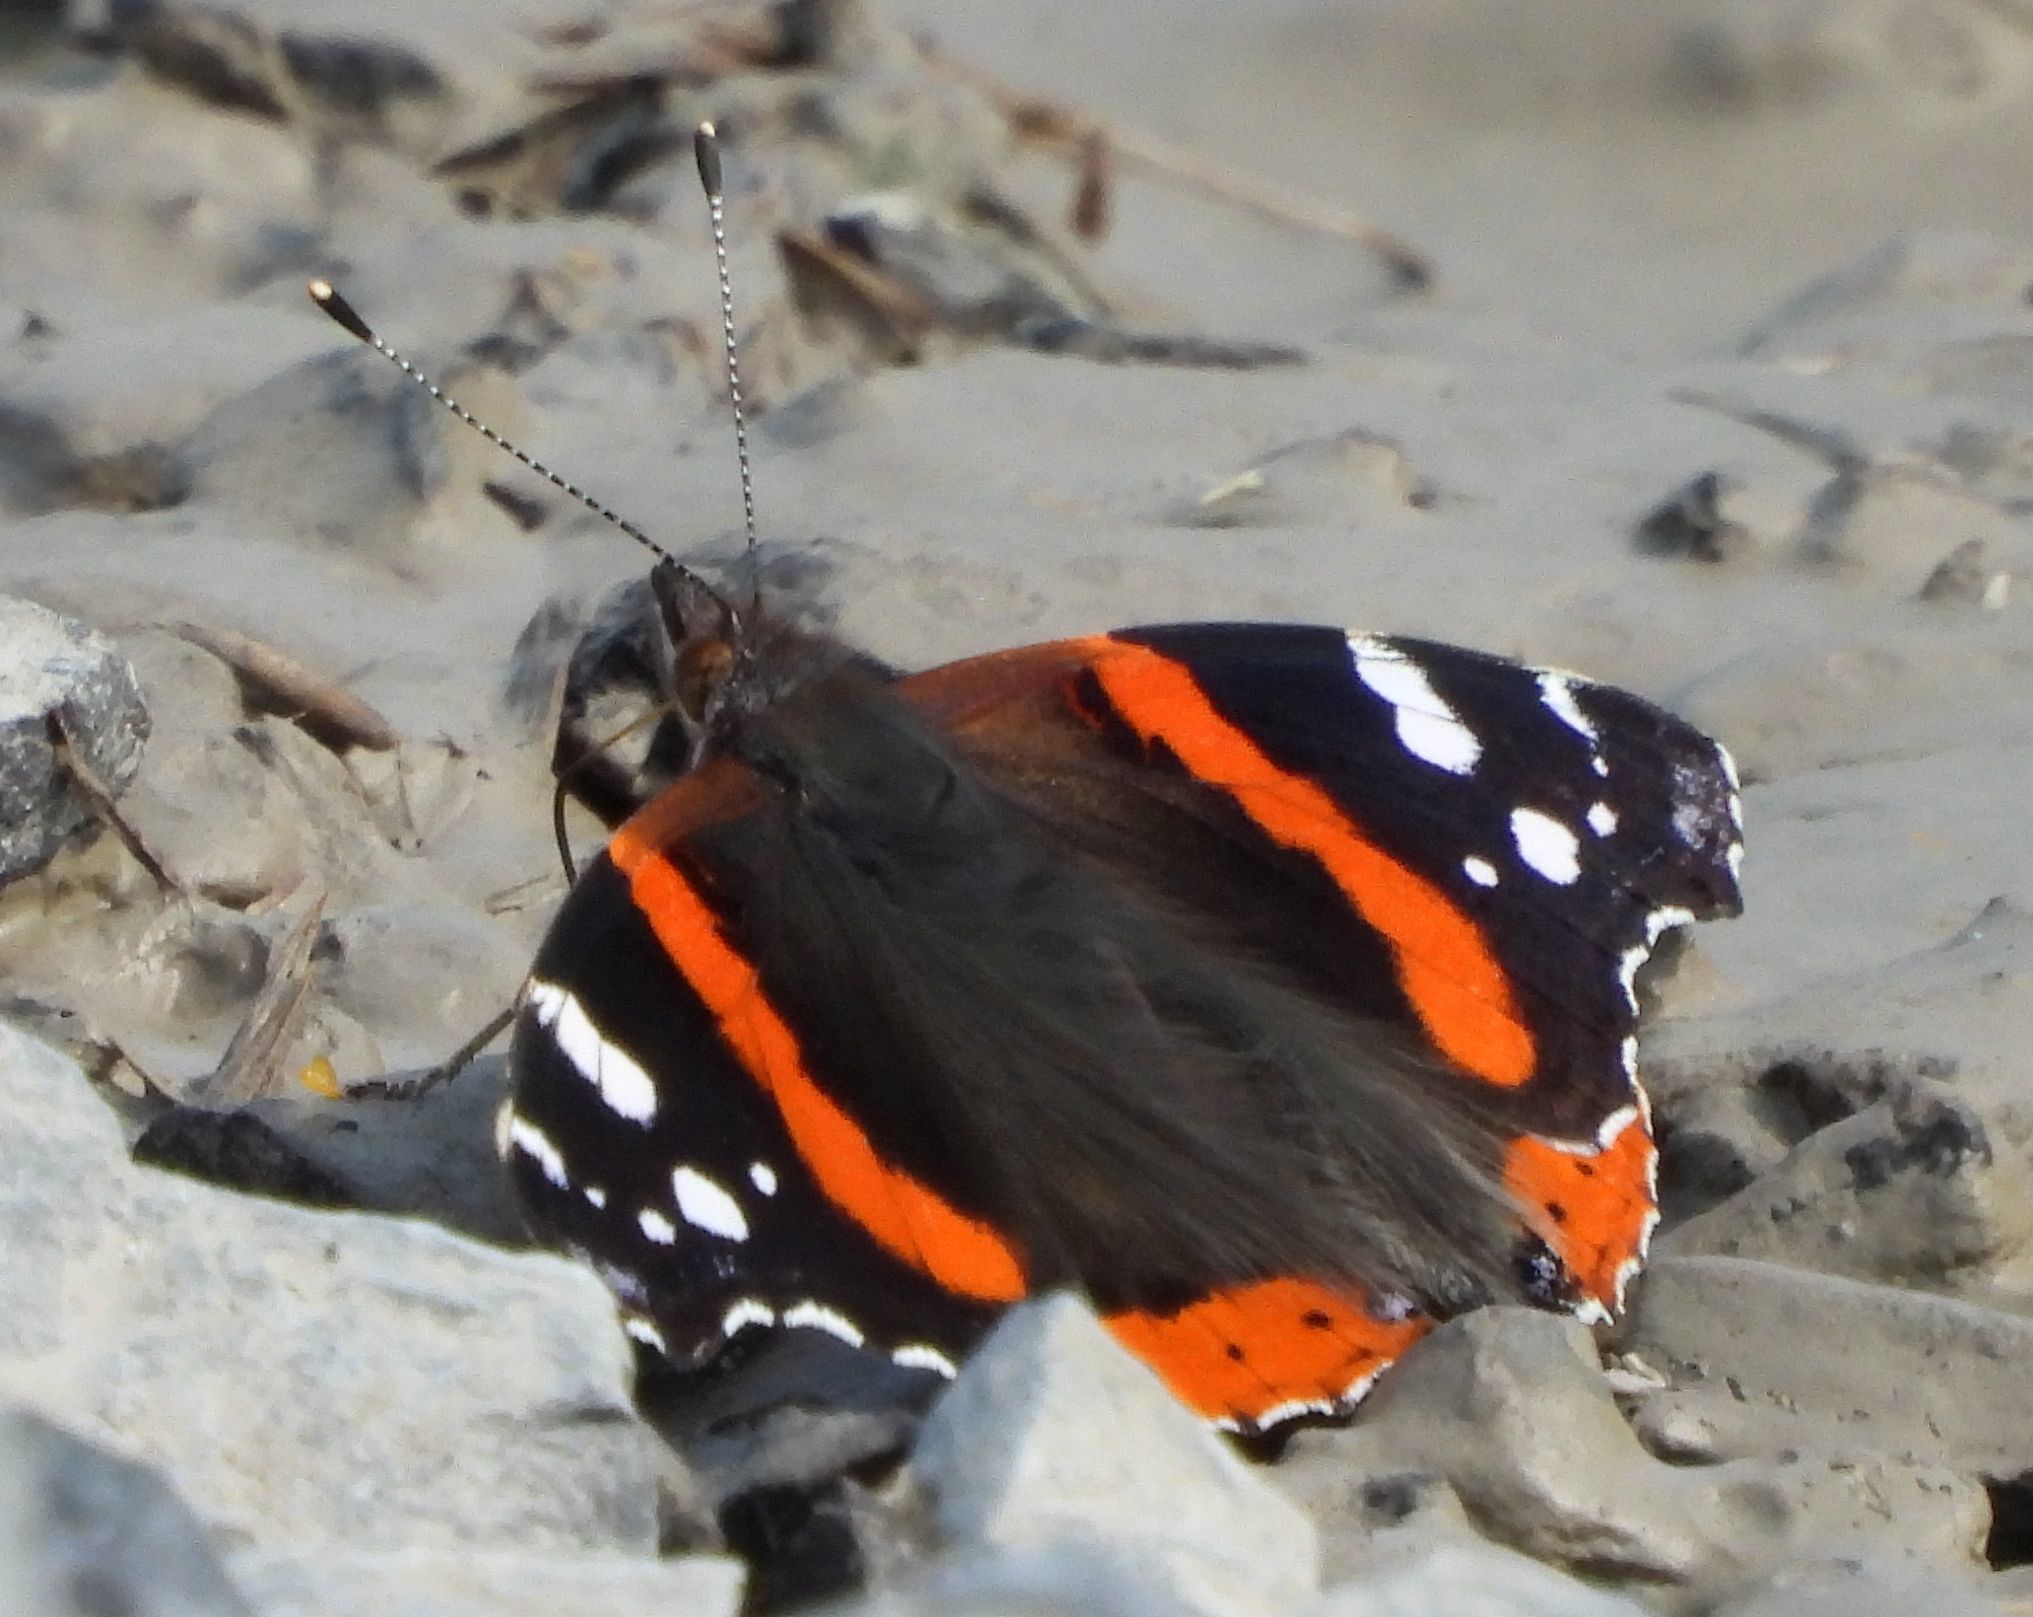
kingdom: Animalia
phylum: Arthropoda
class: Insecta
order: Lepidoptera
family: Nymphalidae
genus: Vanessa
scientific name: Vanessa atalanta
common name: Red admiral
